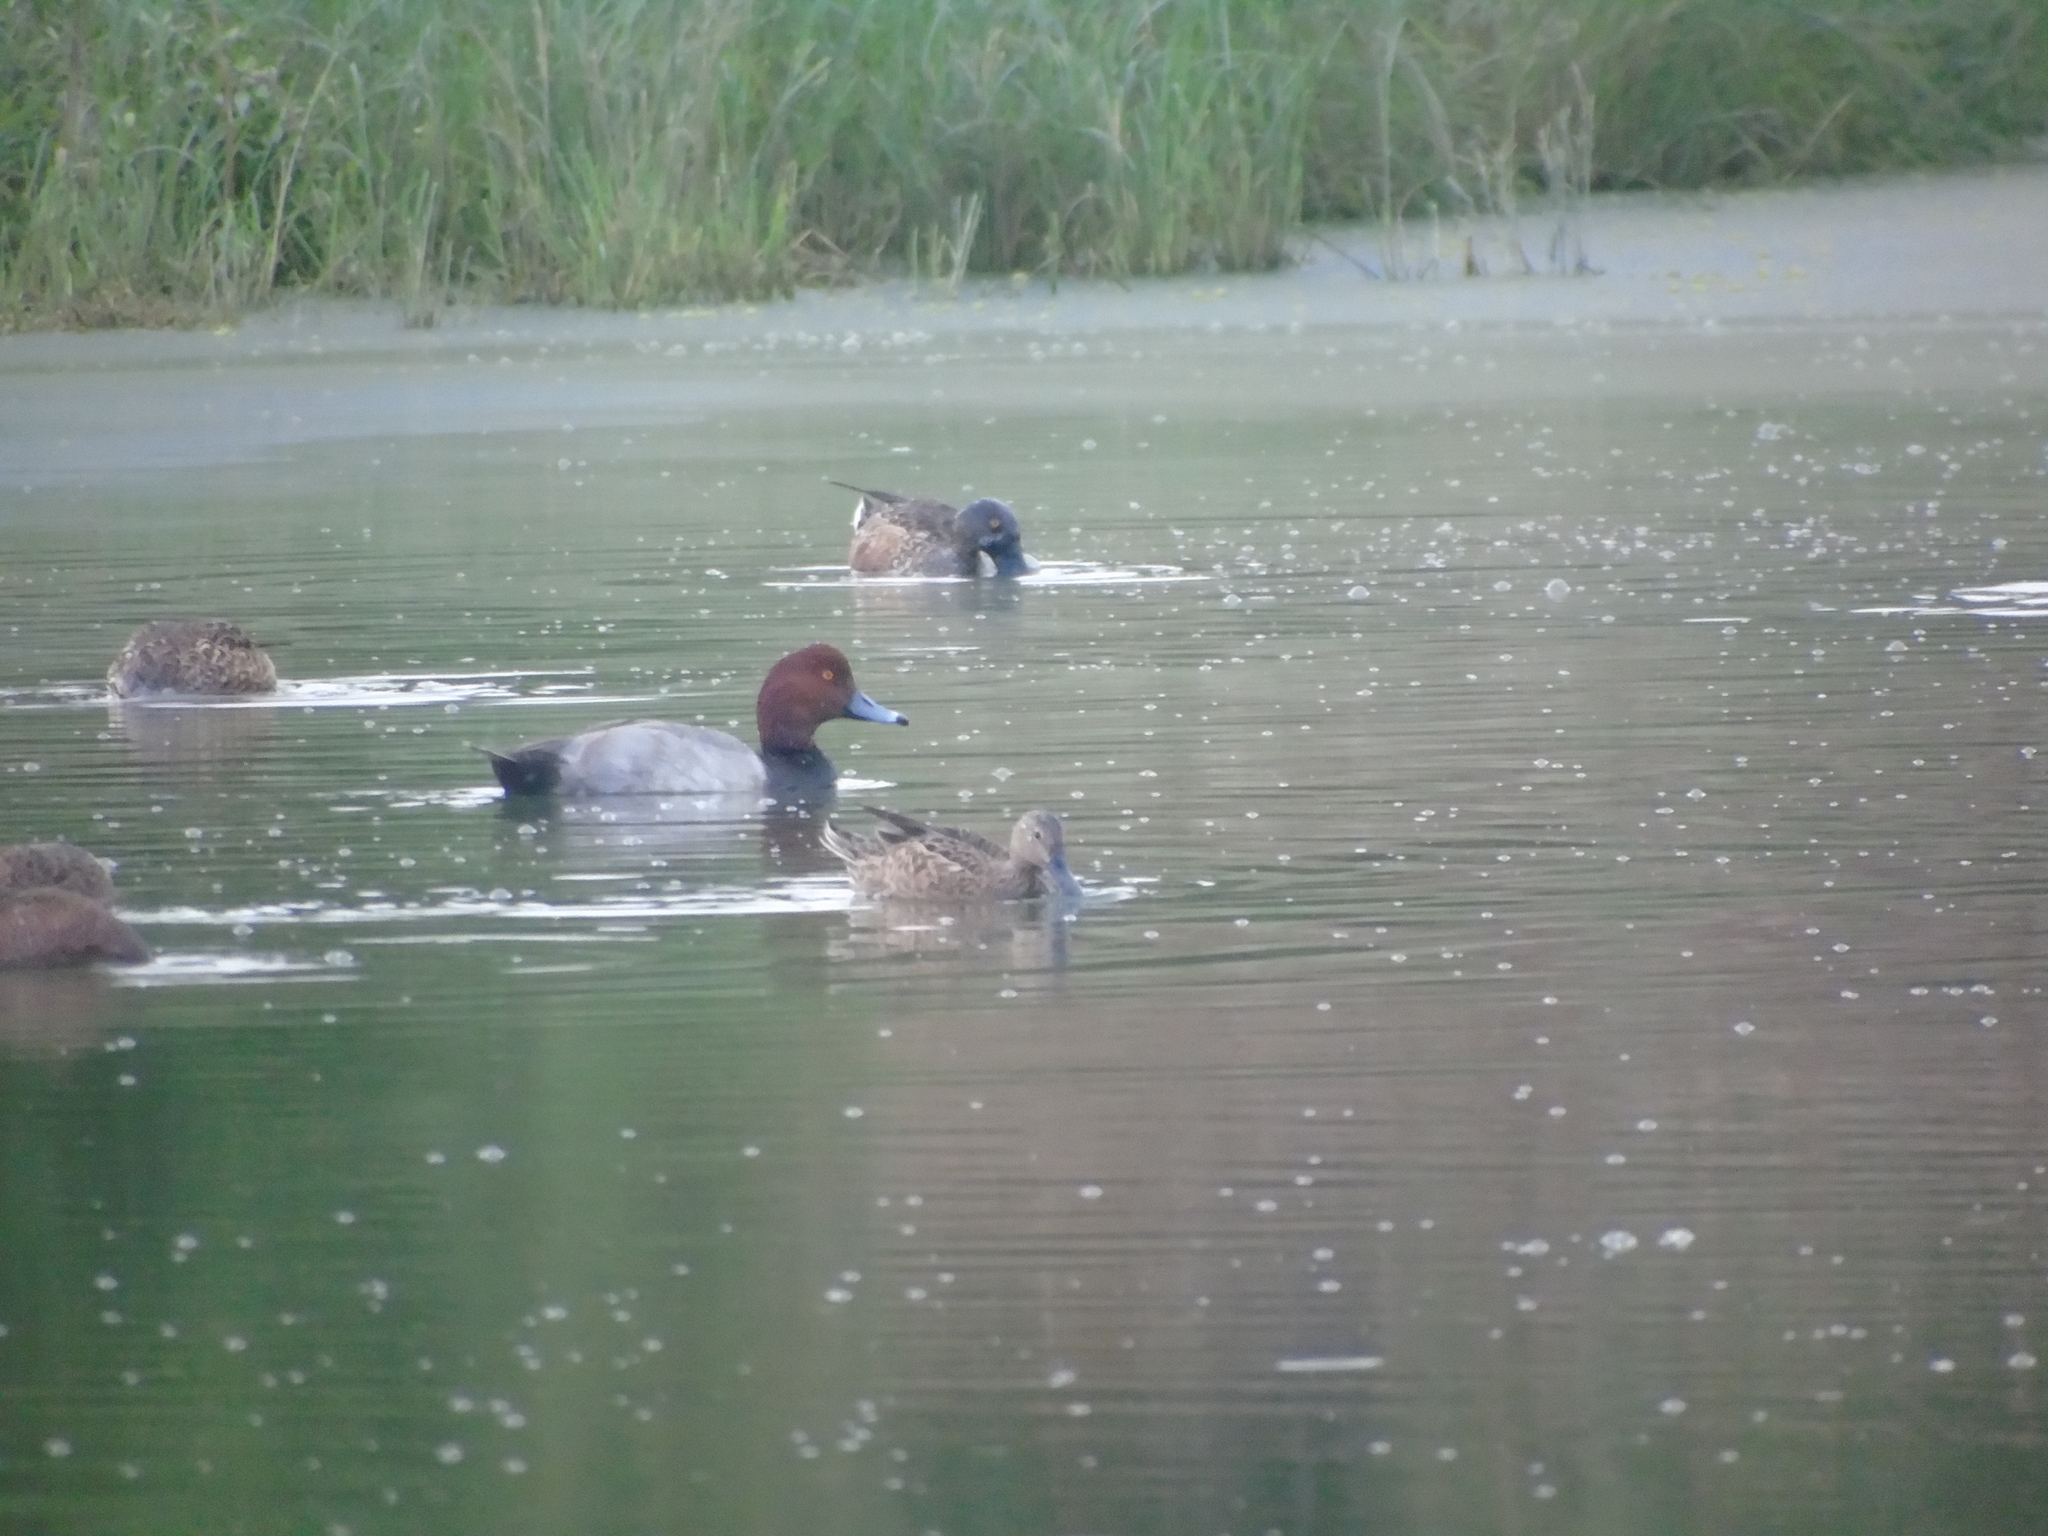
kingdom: Animalia
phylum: Chordata
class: Aves
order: Anseriformes
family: Anatidae
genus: Aythya
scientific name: Aythya americana
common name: Redhead
